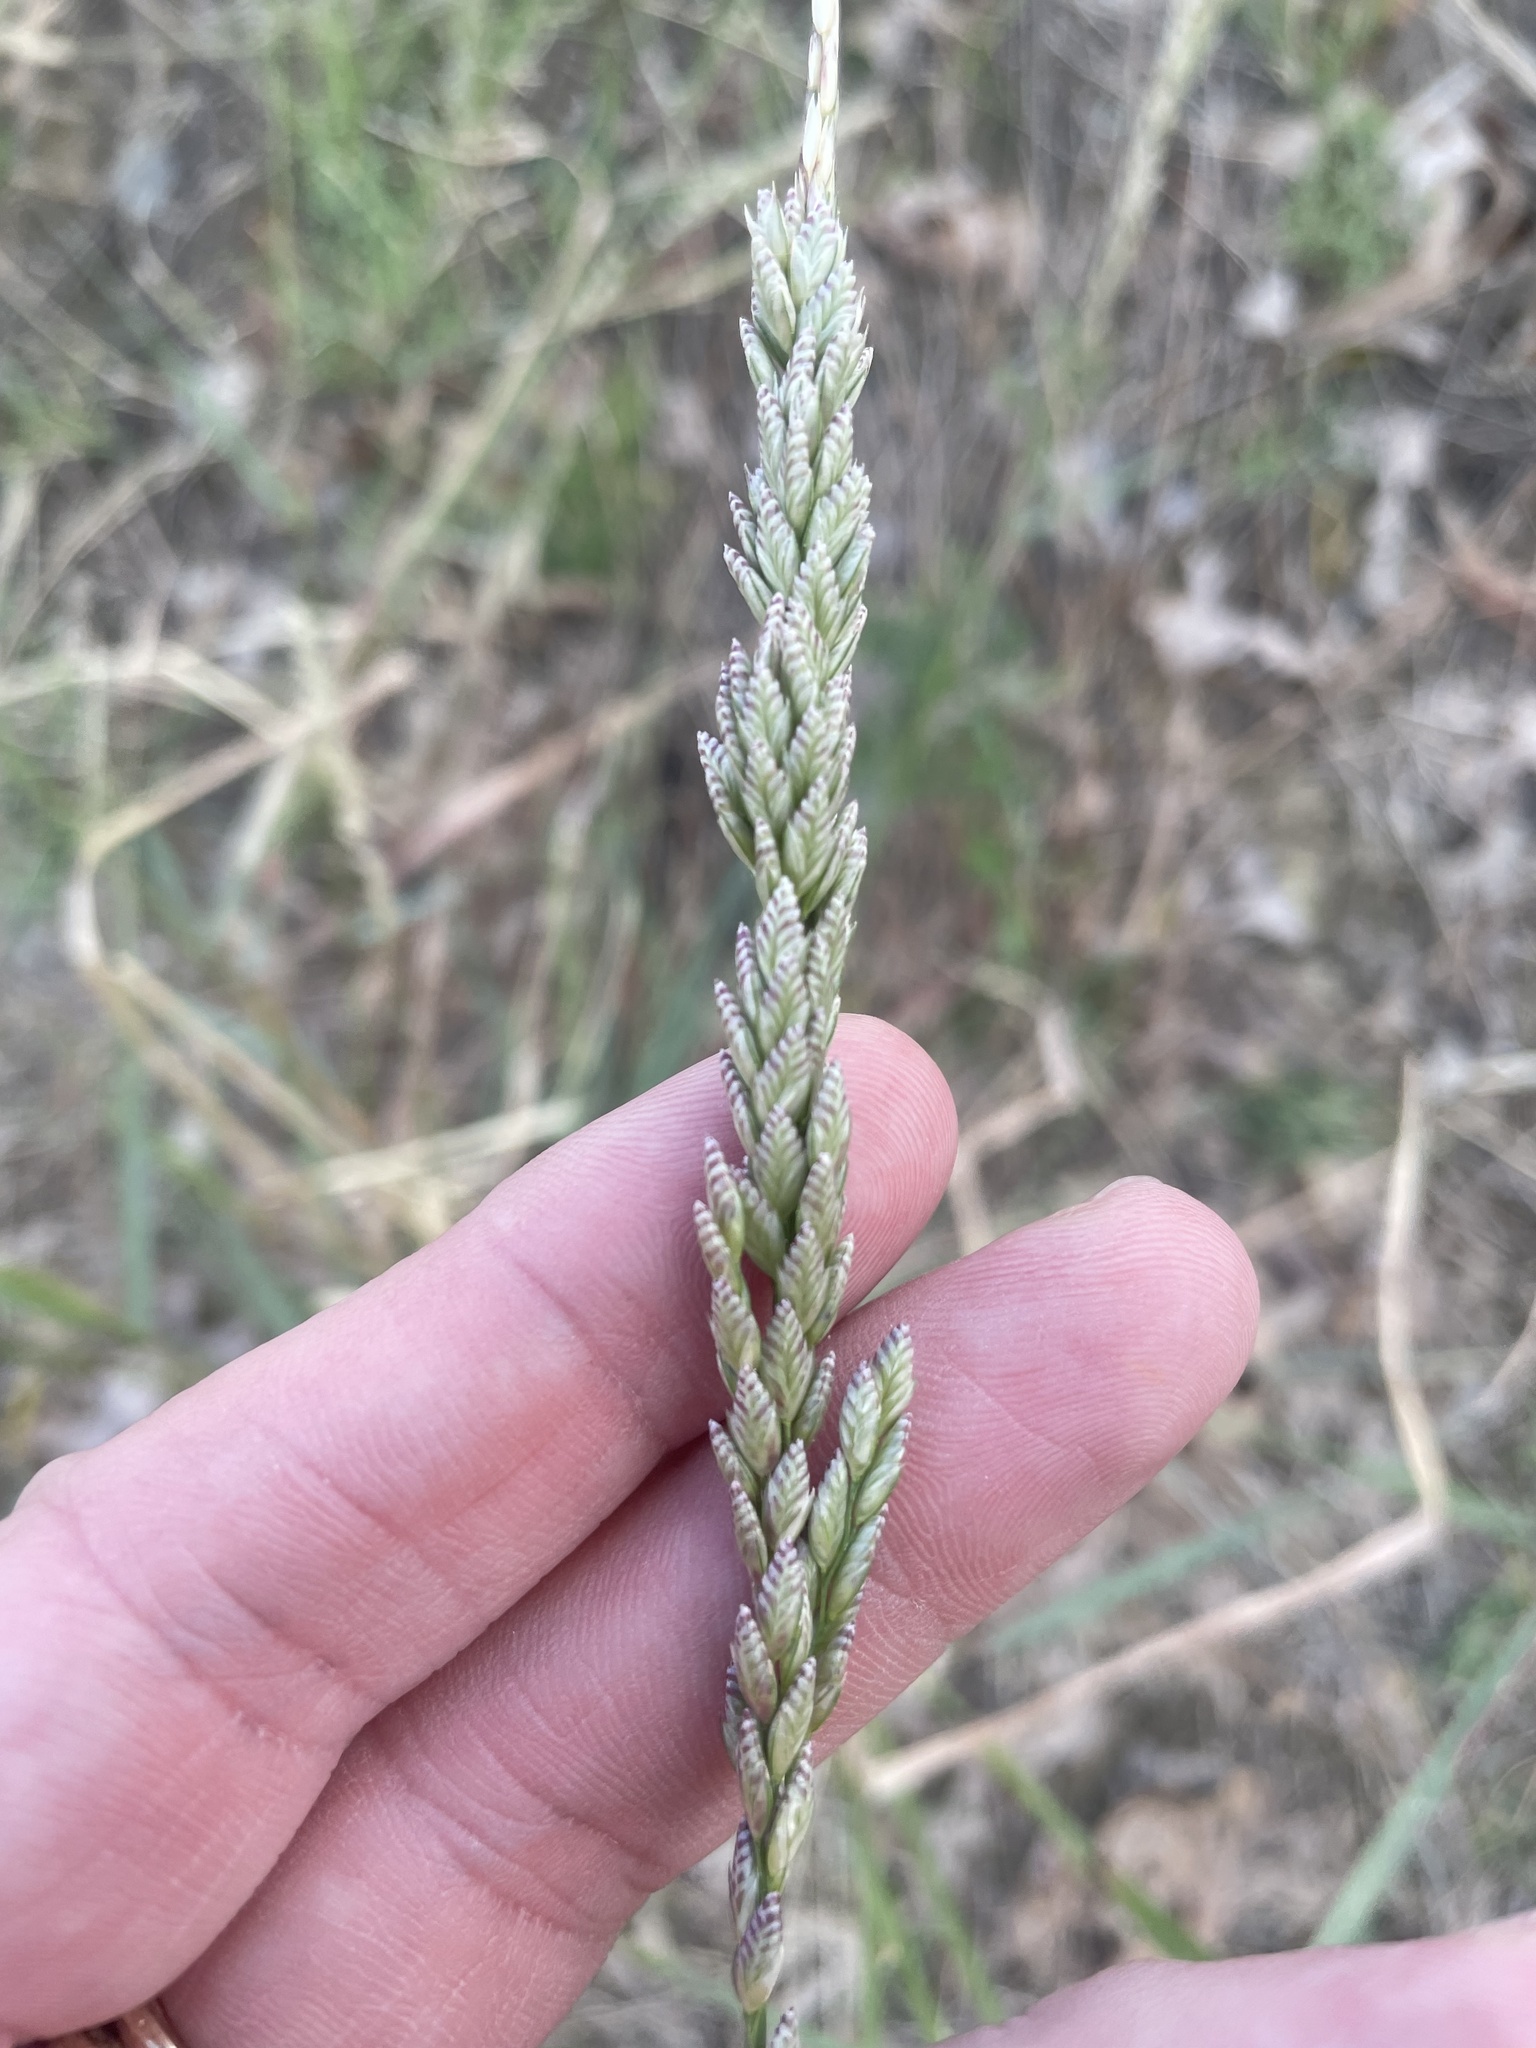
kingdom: Plantae
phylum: Tracheophyta
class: Liliopsida
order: Poales
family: Poaceae
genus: Tridens
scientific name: Tridens albescens
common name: White tridens
